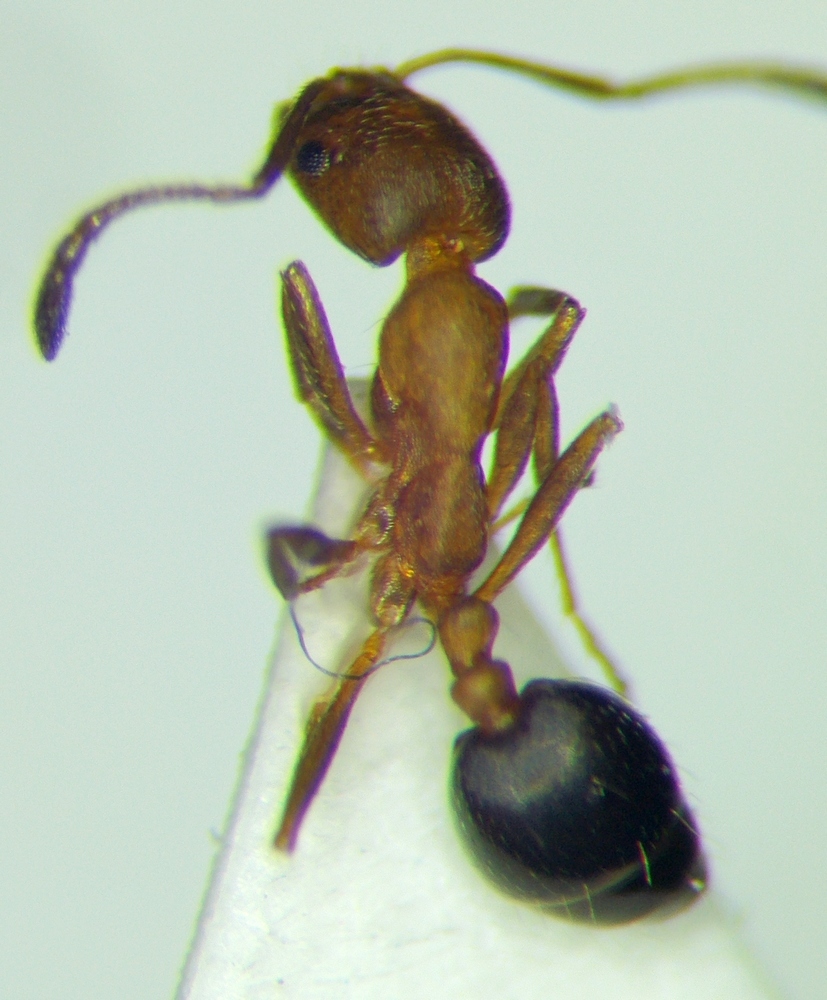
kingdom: Animalia
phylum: Arthropoda
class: Insecta
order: Hymenoptera
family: Formicidae
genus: Monomorium
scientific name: Monomorium bicolor
